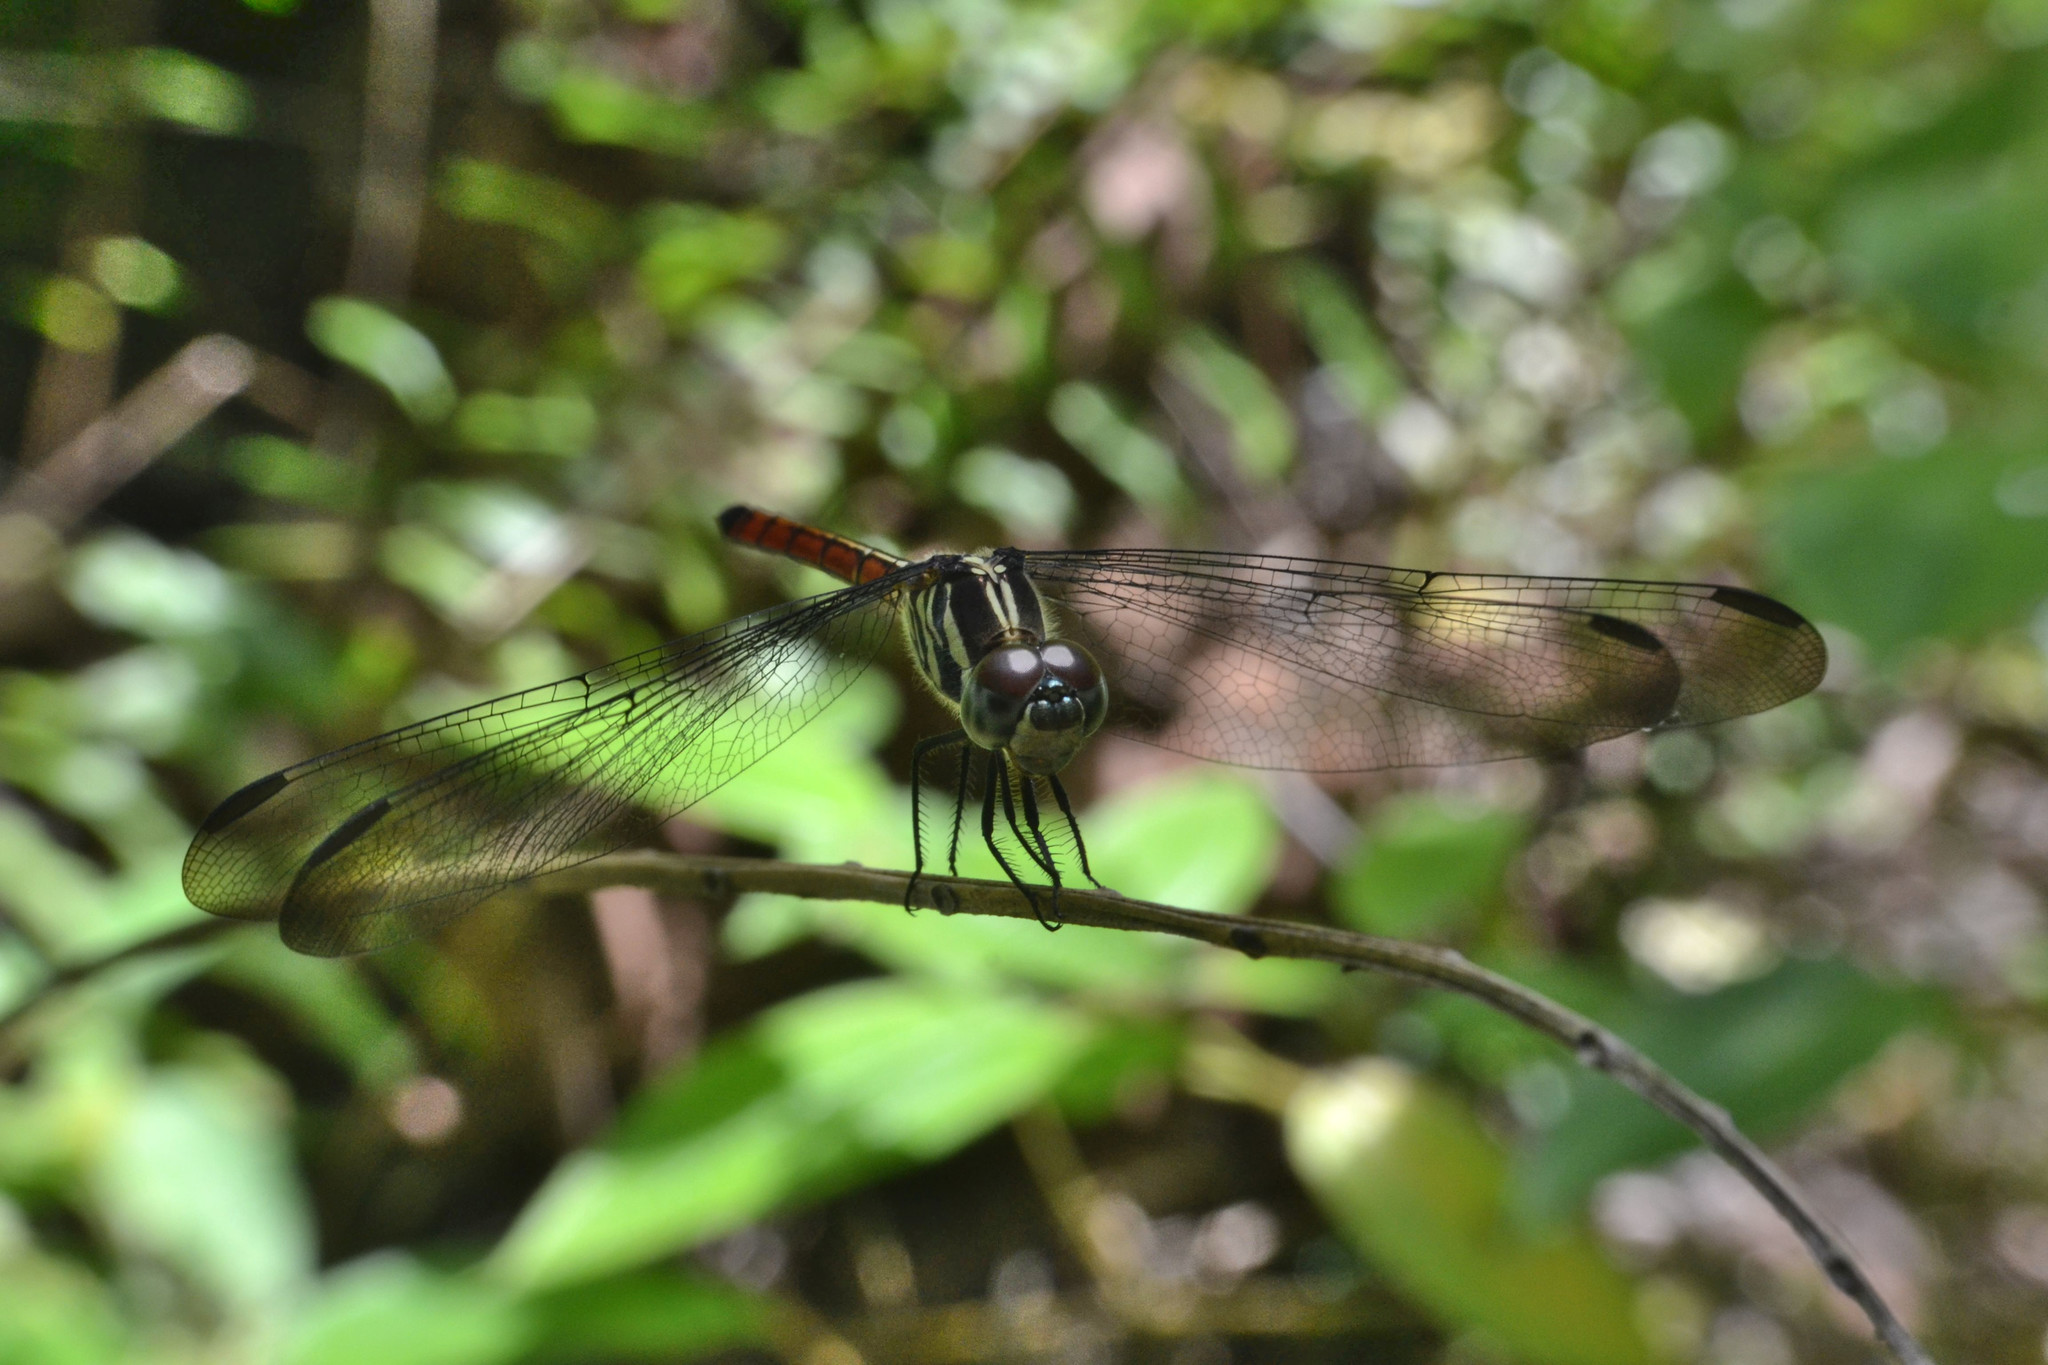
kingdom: Animalia
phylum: Arthropoda
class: Insecta
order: Odonata
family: Libellulidae
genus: Lathrecista
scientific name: Lathrecista asiatica
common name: Scarlet grenadier
